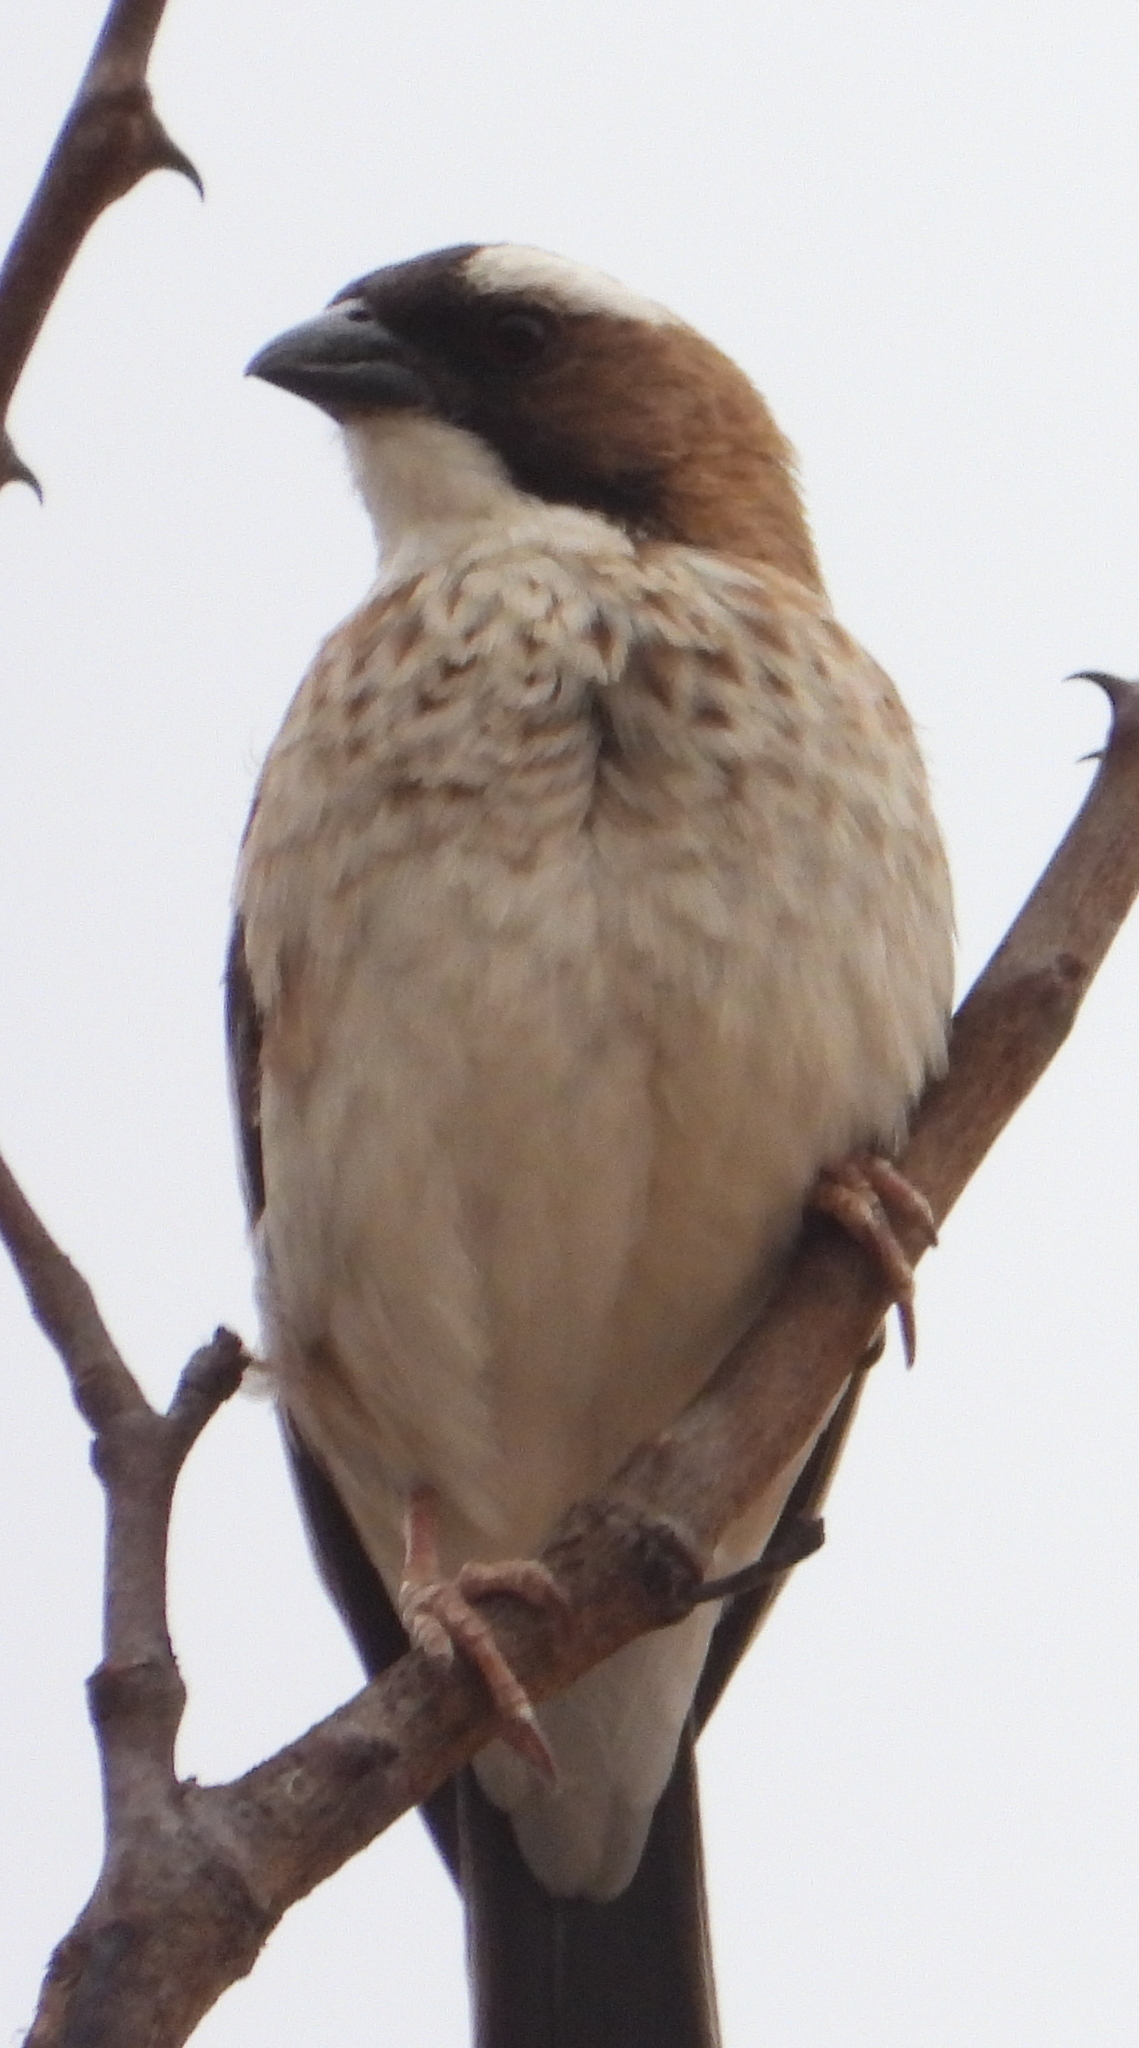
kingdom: Animalia
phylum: Chordata
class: Aves
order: Passeriformes
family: Passeridae
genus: Plocepasser
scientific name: Plocepasser mahali
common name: White-browed sparrow-weaver
